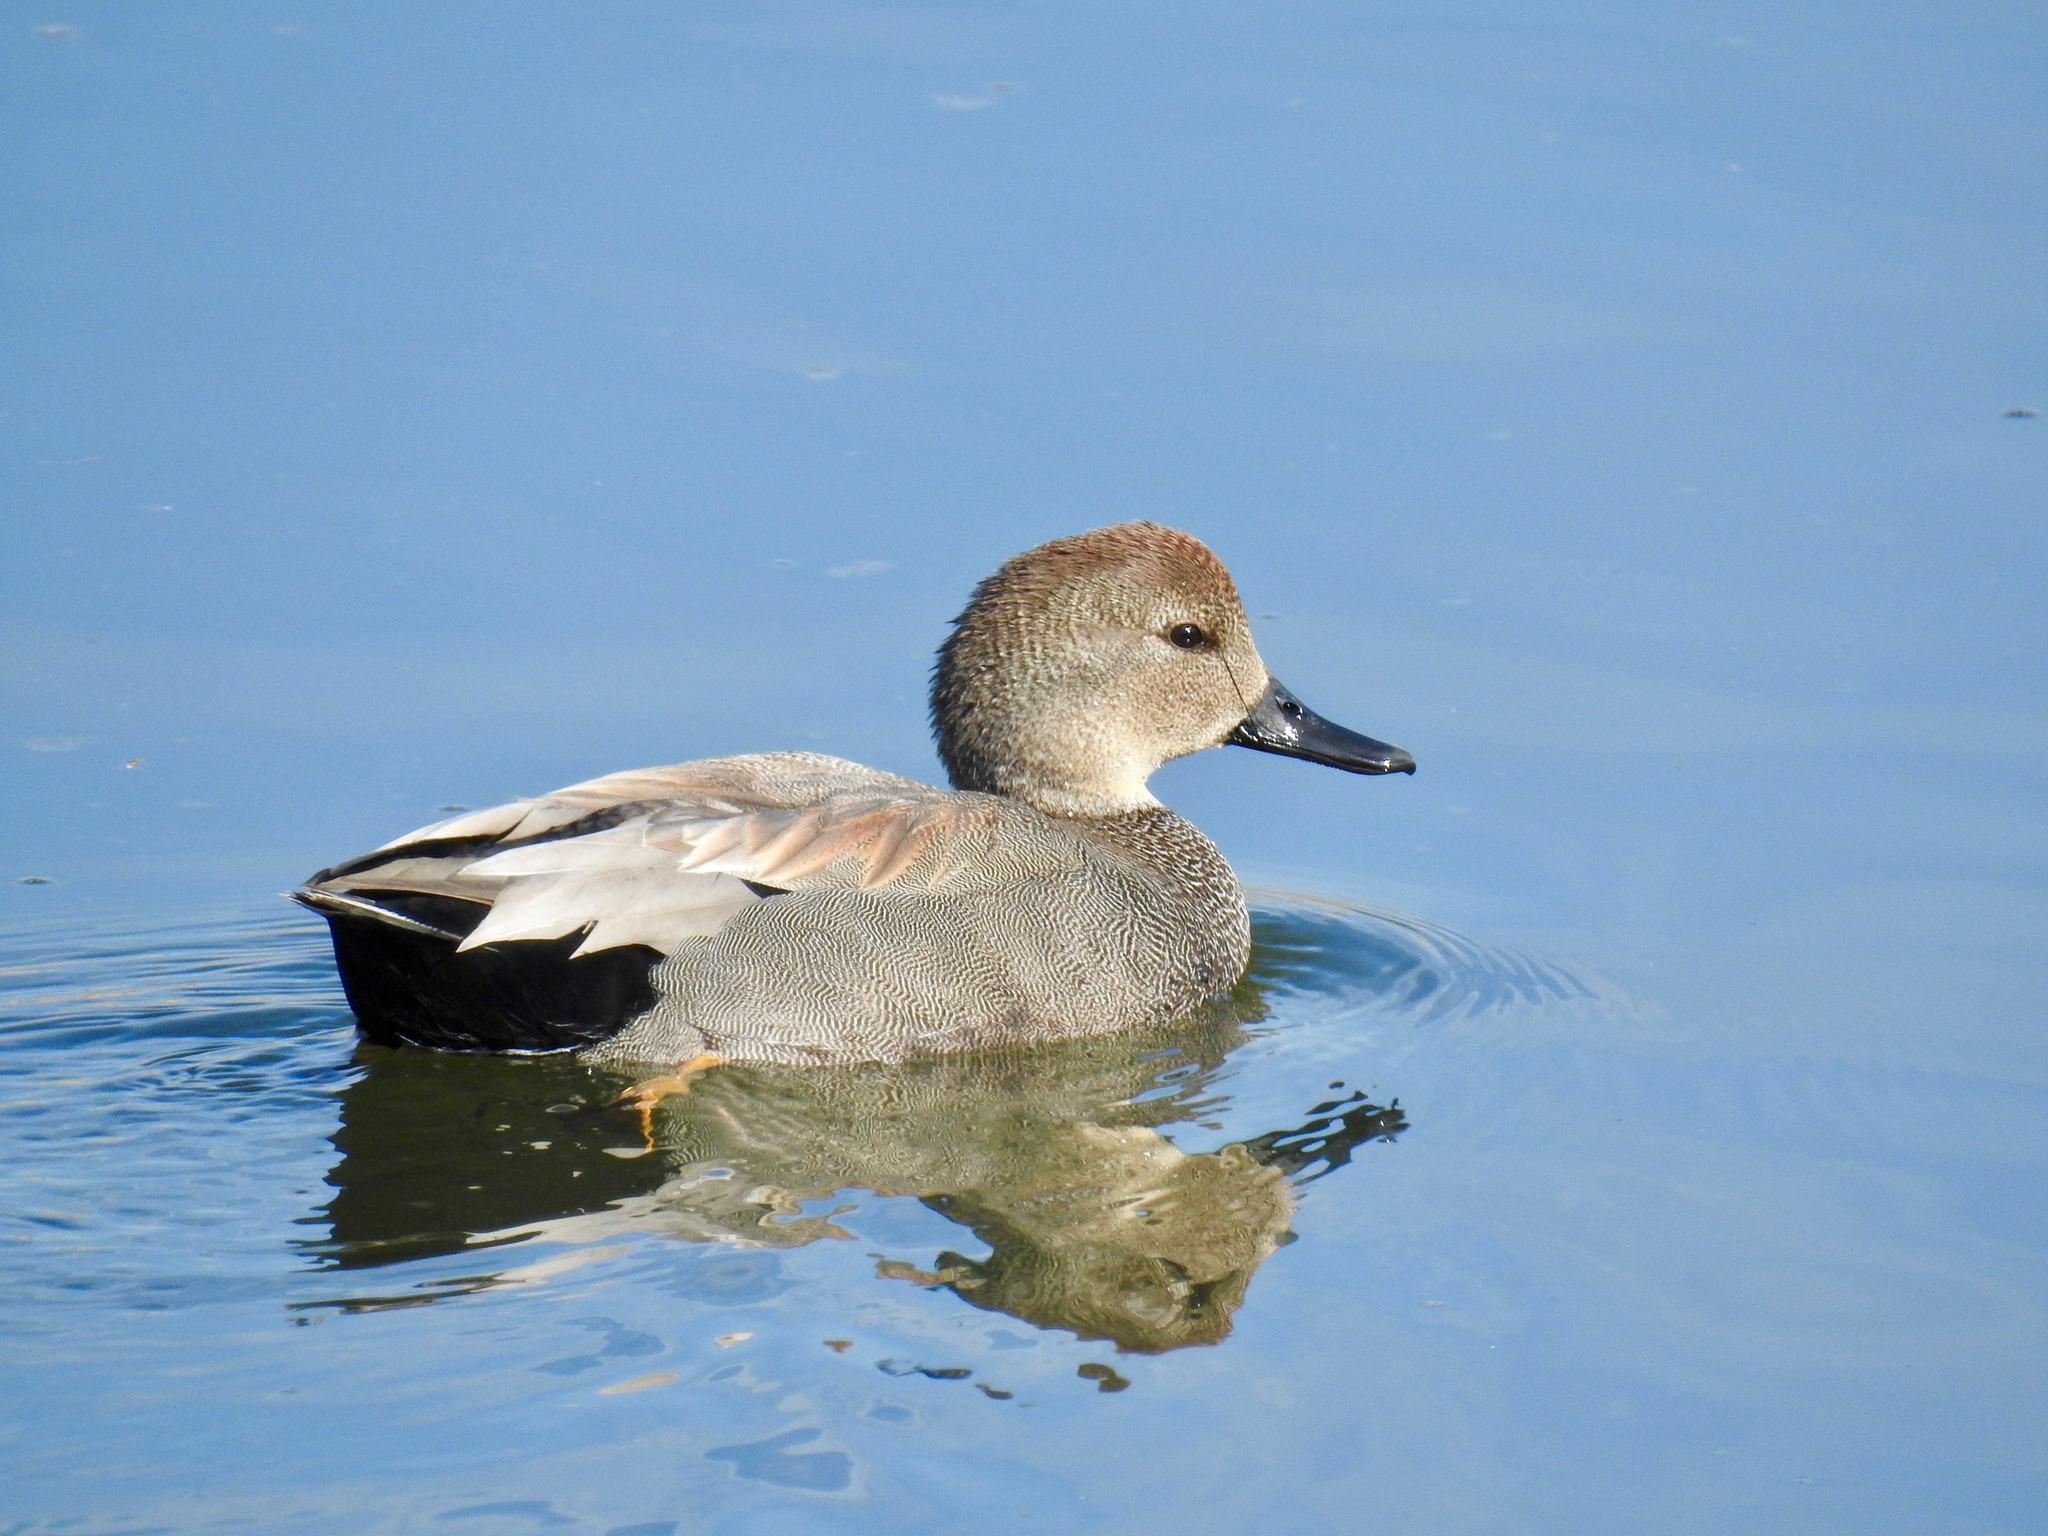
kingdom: Animalia
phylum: Chordata
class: Aves
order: Anseriformes
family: Anatidae
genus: Mareca
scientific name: Mareca strepera
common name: Gadwall
